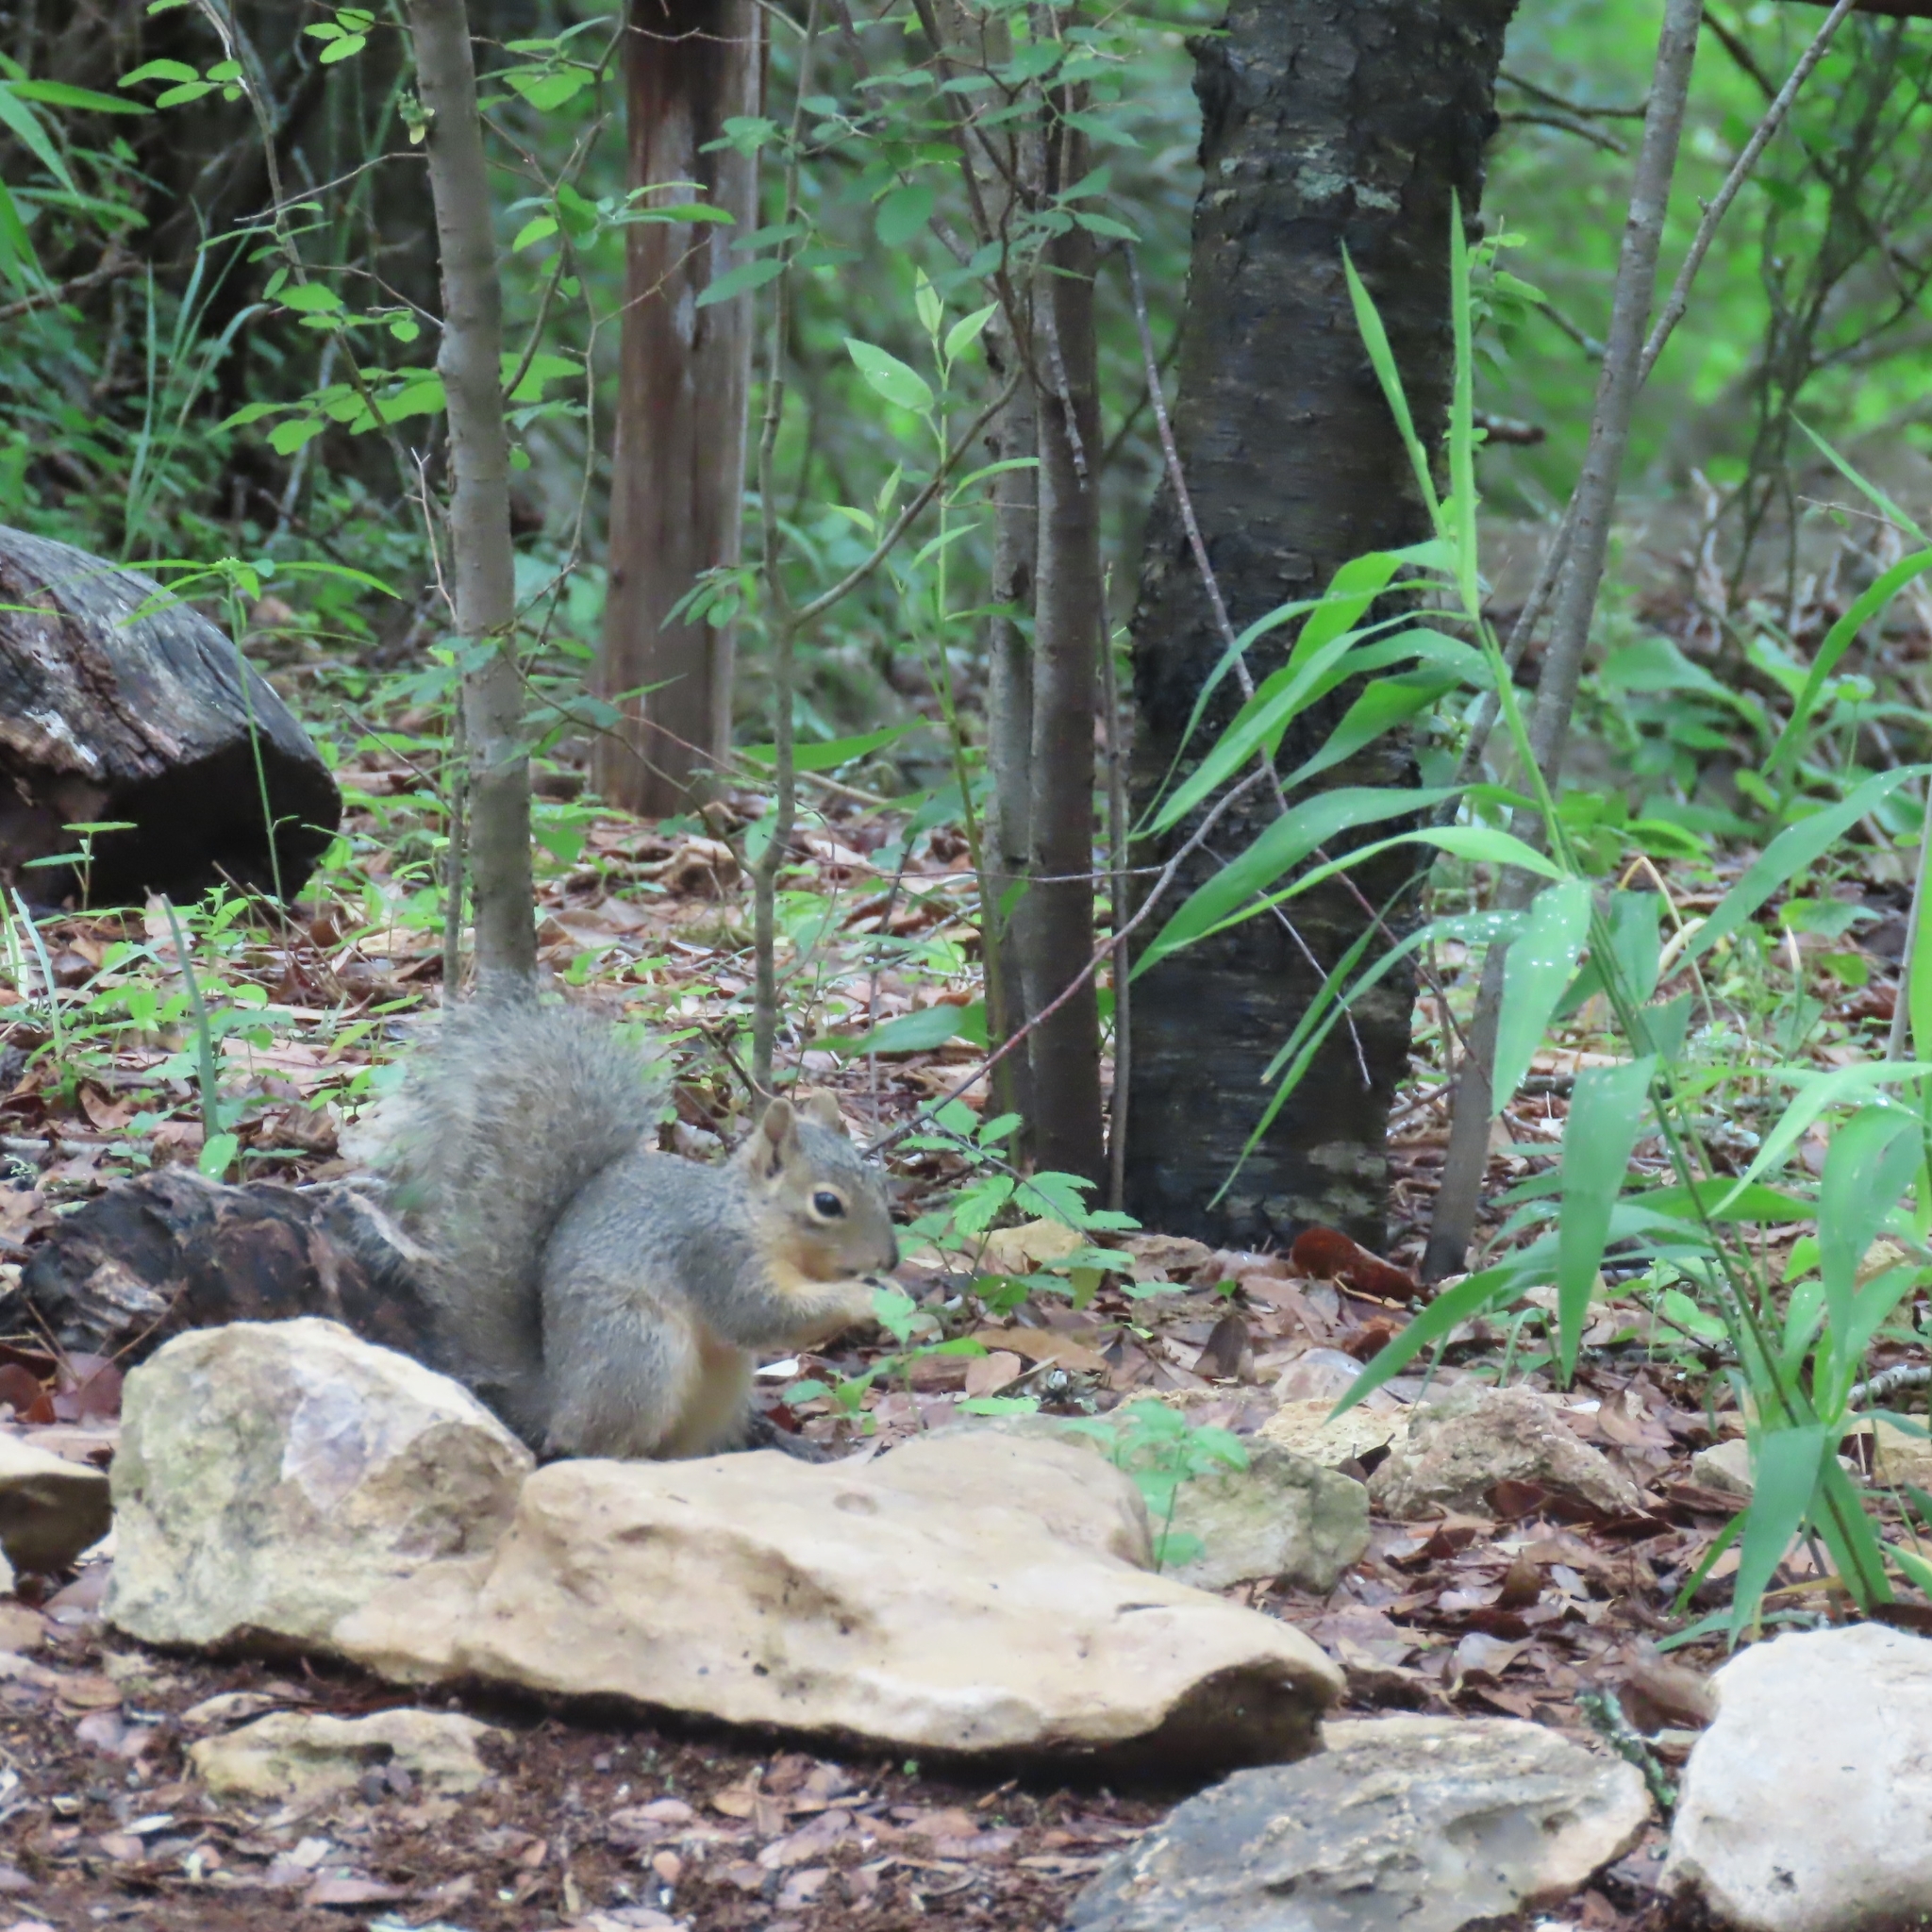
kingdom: Animalia
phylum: Chordata
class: Mammalia
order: Rodentia
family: Sciuridae
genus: Sciurus
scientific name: Sciurus niger
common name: Fox squirrel
